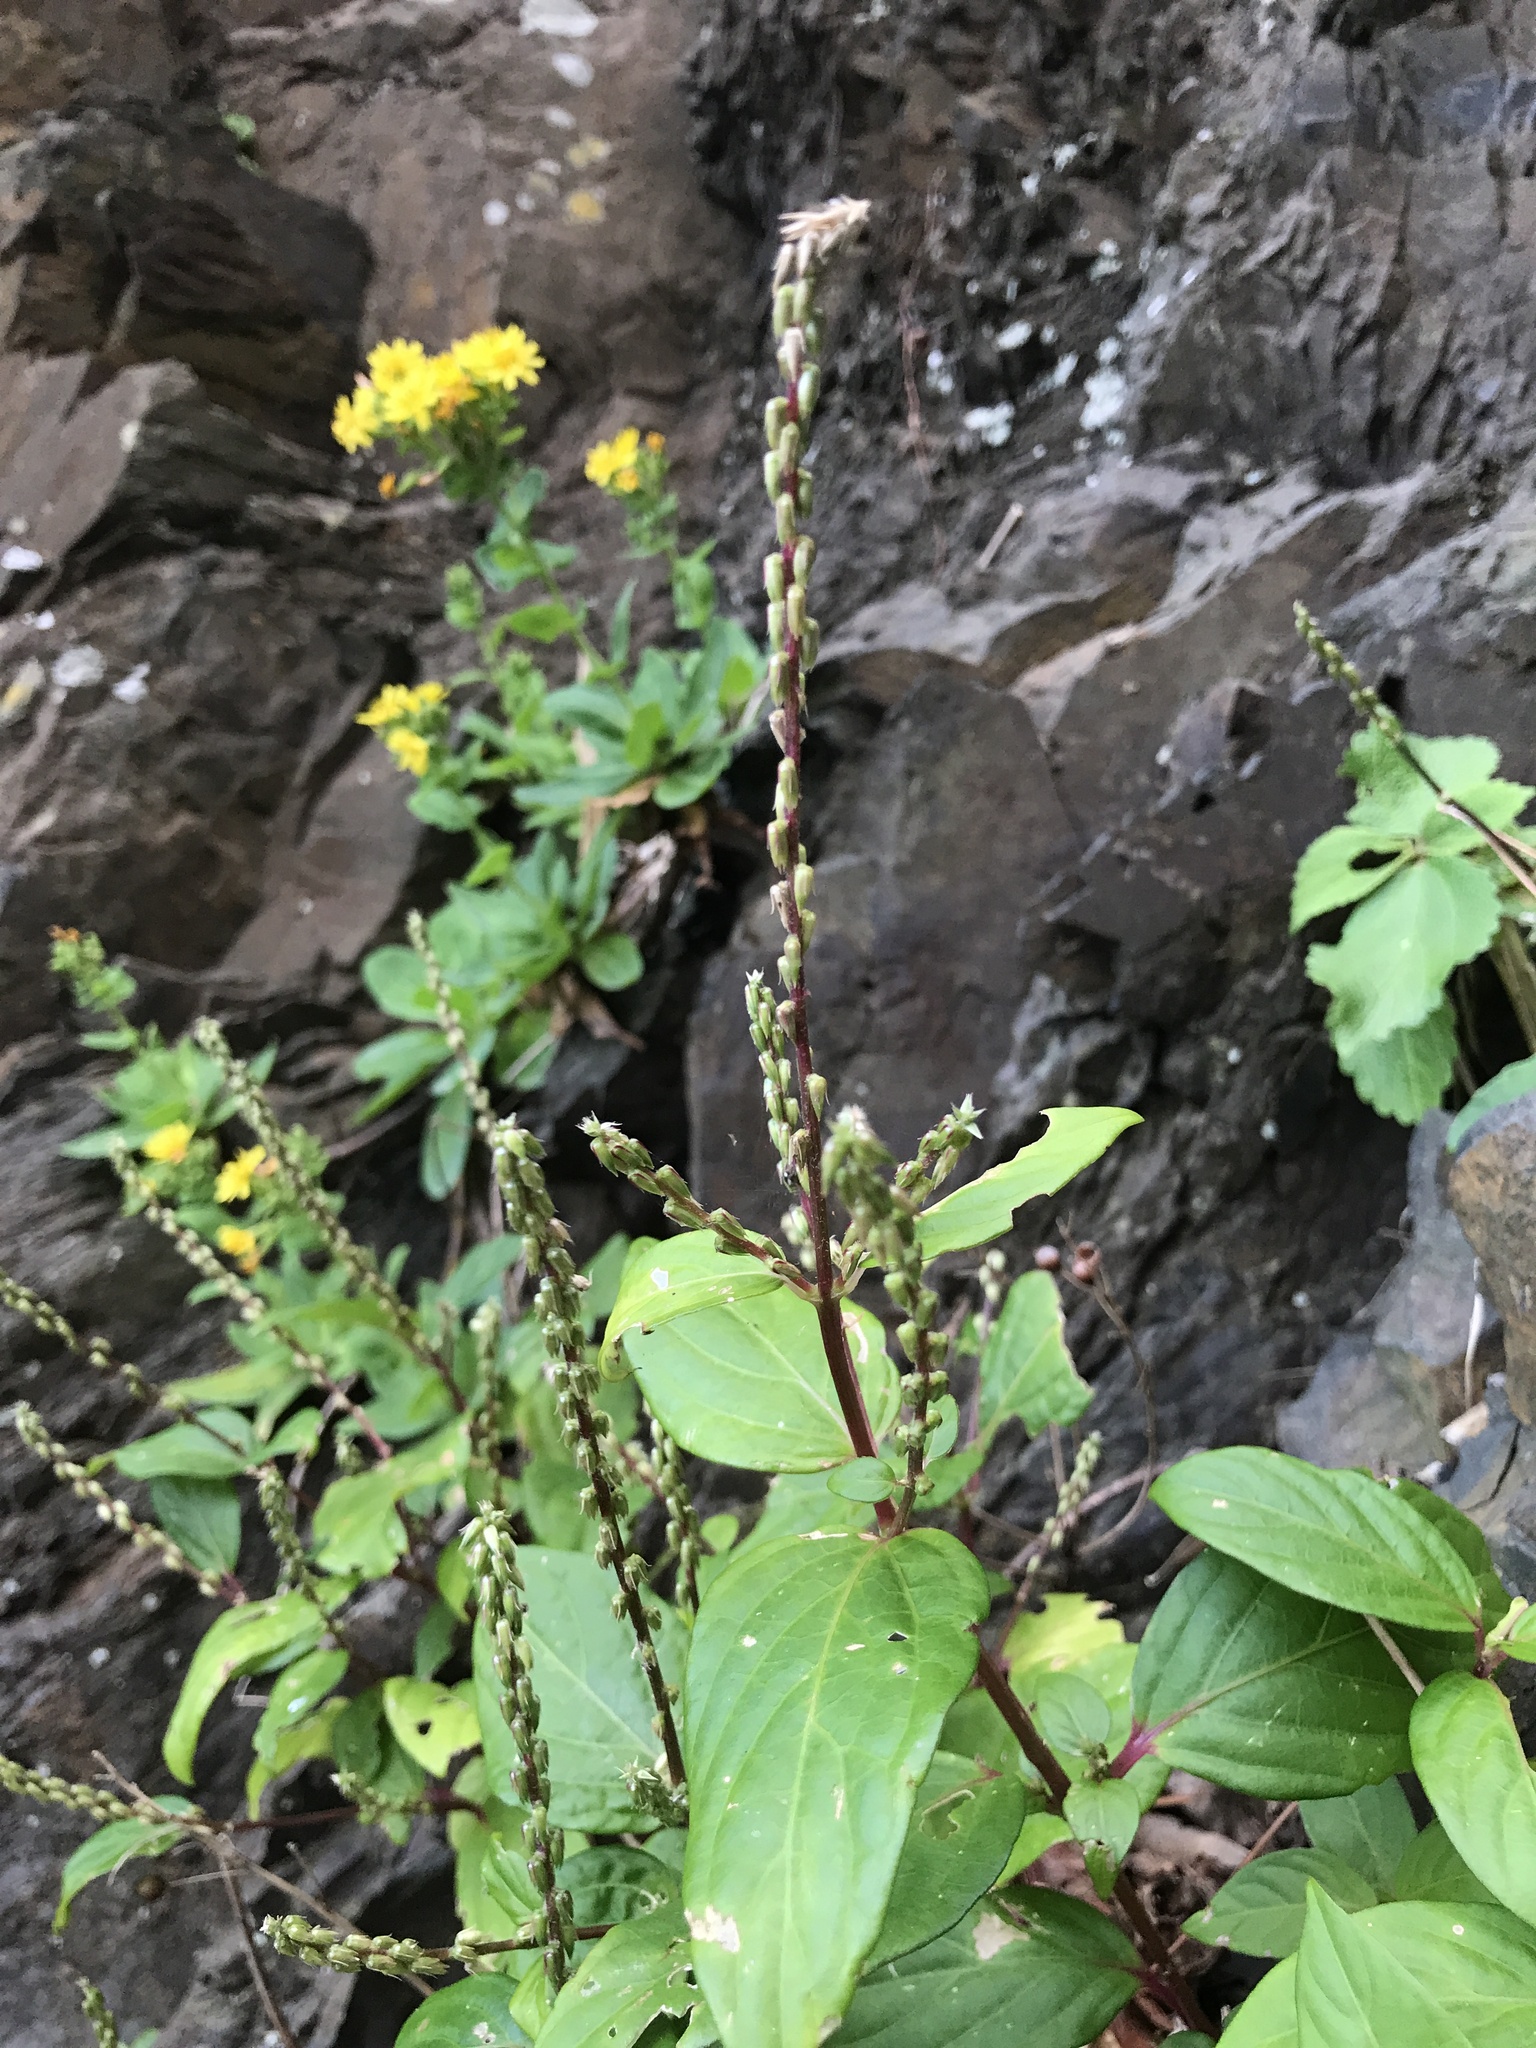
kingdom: Plantae
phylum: Tracheophyta
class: Magnoliopsida
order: Caryophyllales
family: Amaranthaceae
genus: Achyranthes
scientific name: Achyranthes bidentata
